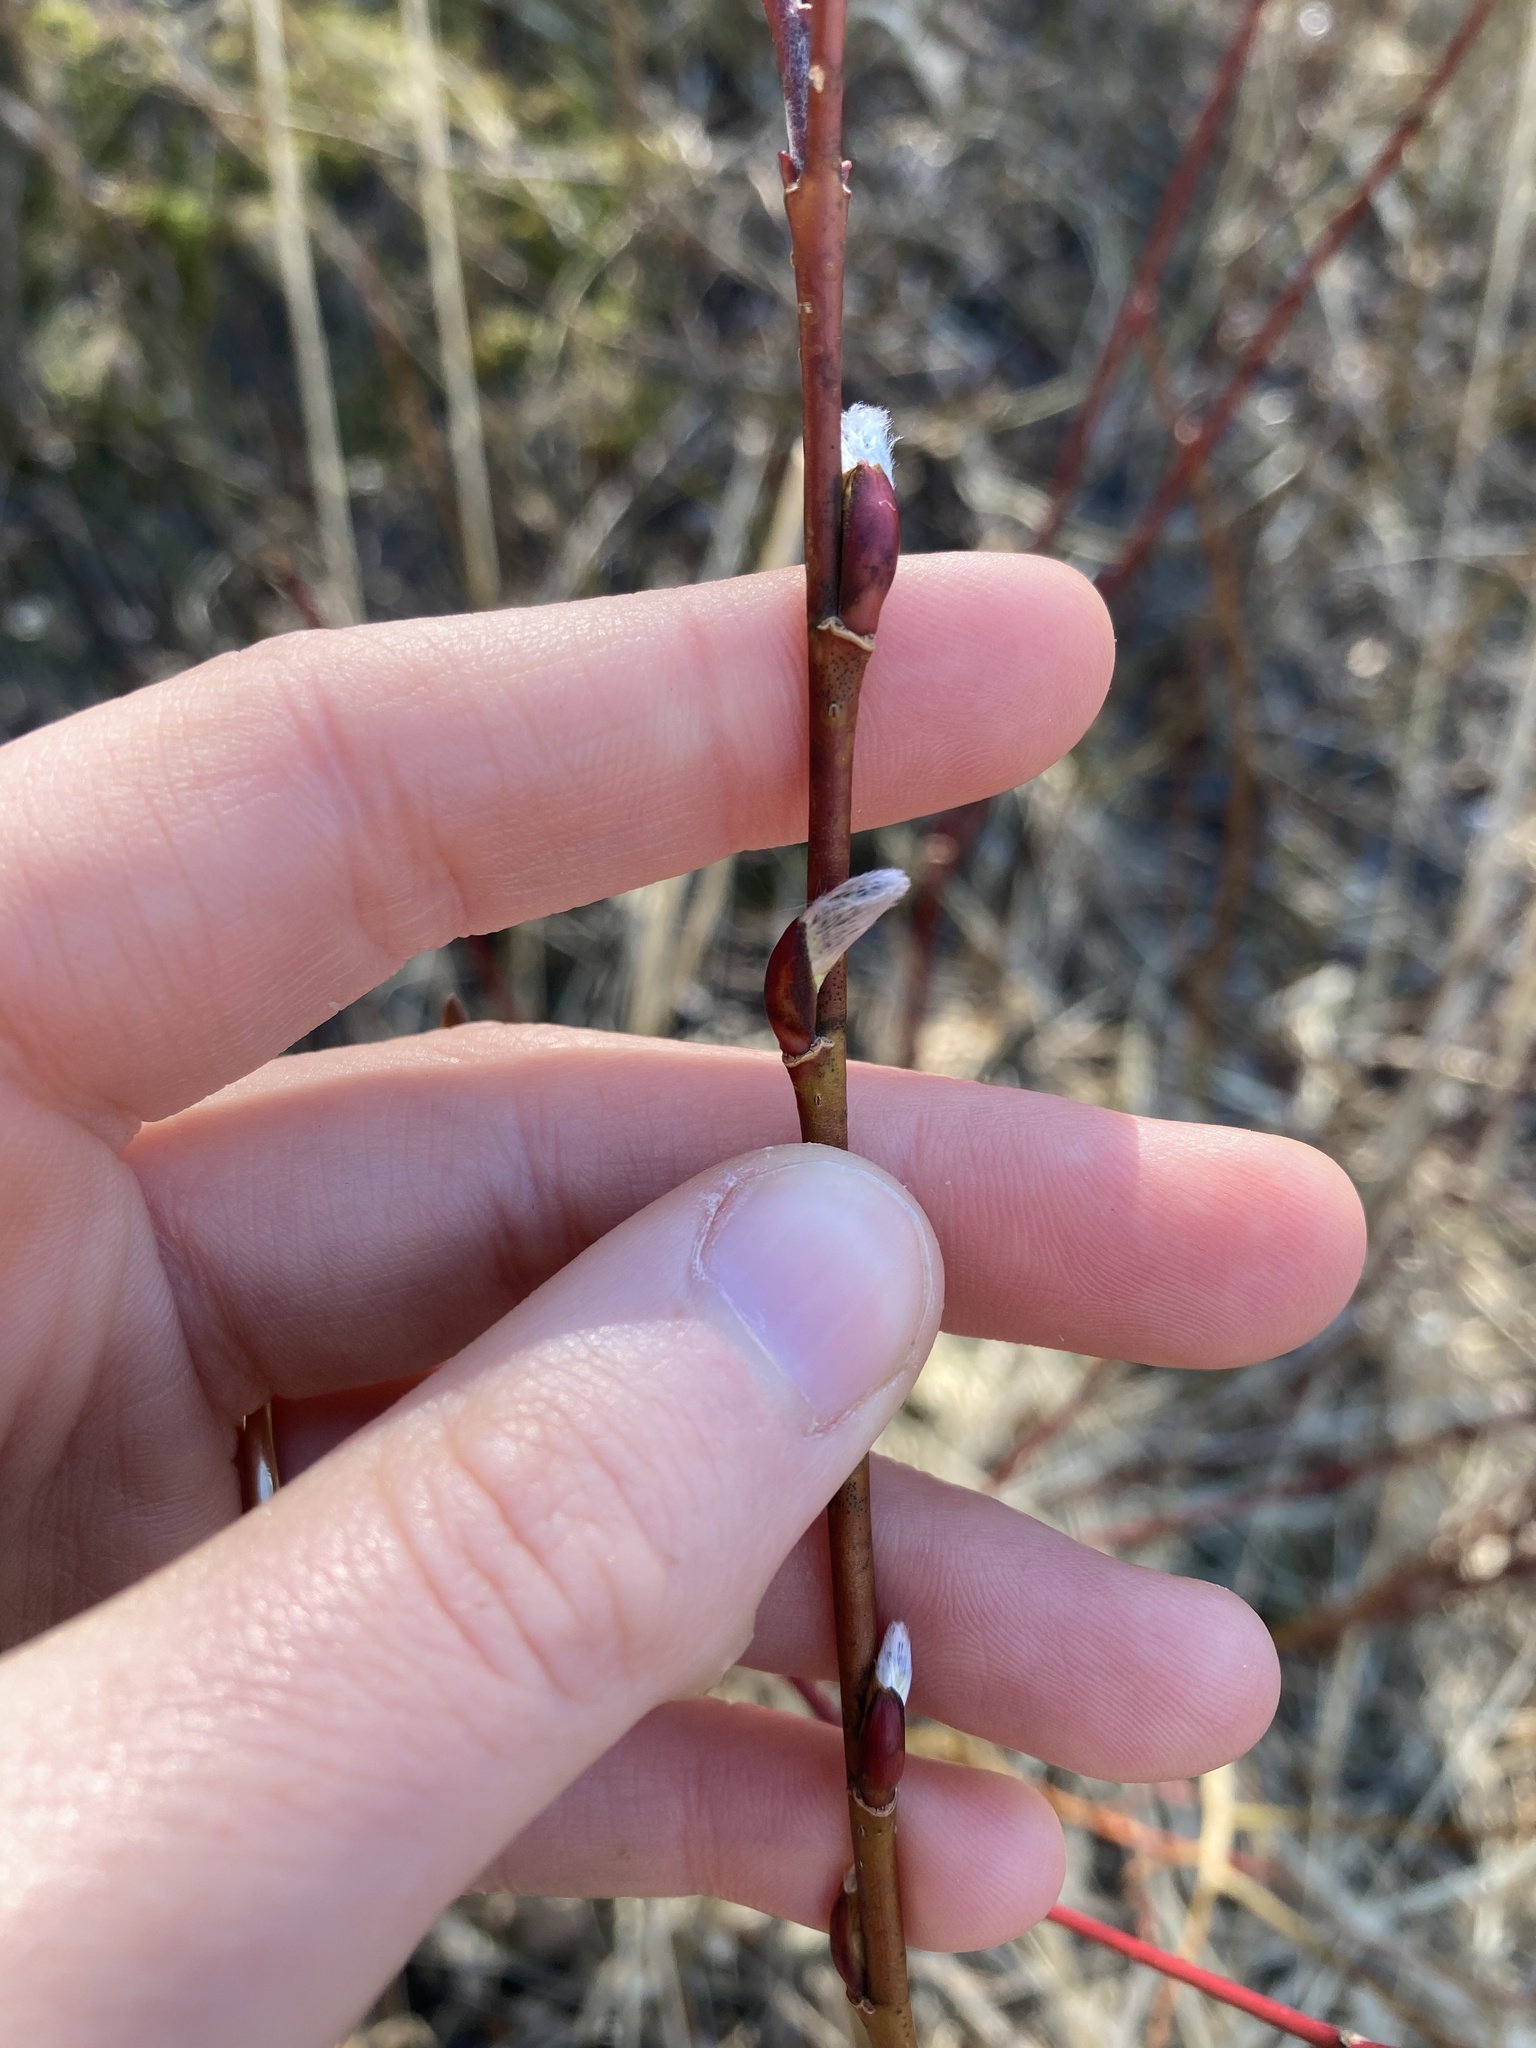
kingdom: Plantae
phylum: Tracheophyta
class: Magnoliopsida
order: Malpighiales
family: Salicaceae
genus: Salix
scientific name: Salix discolor
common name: Glaucous willow
